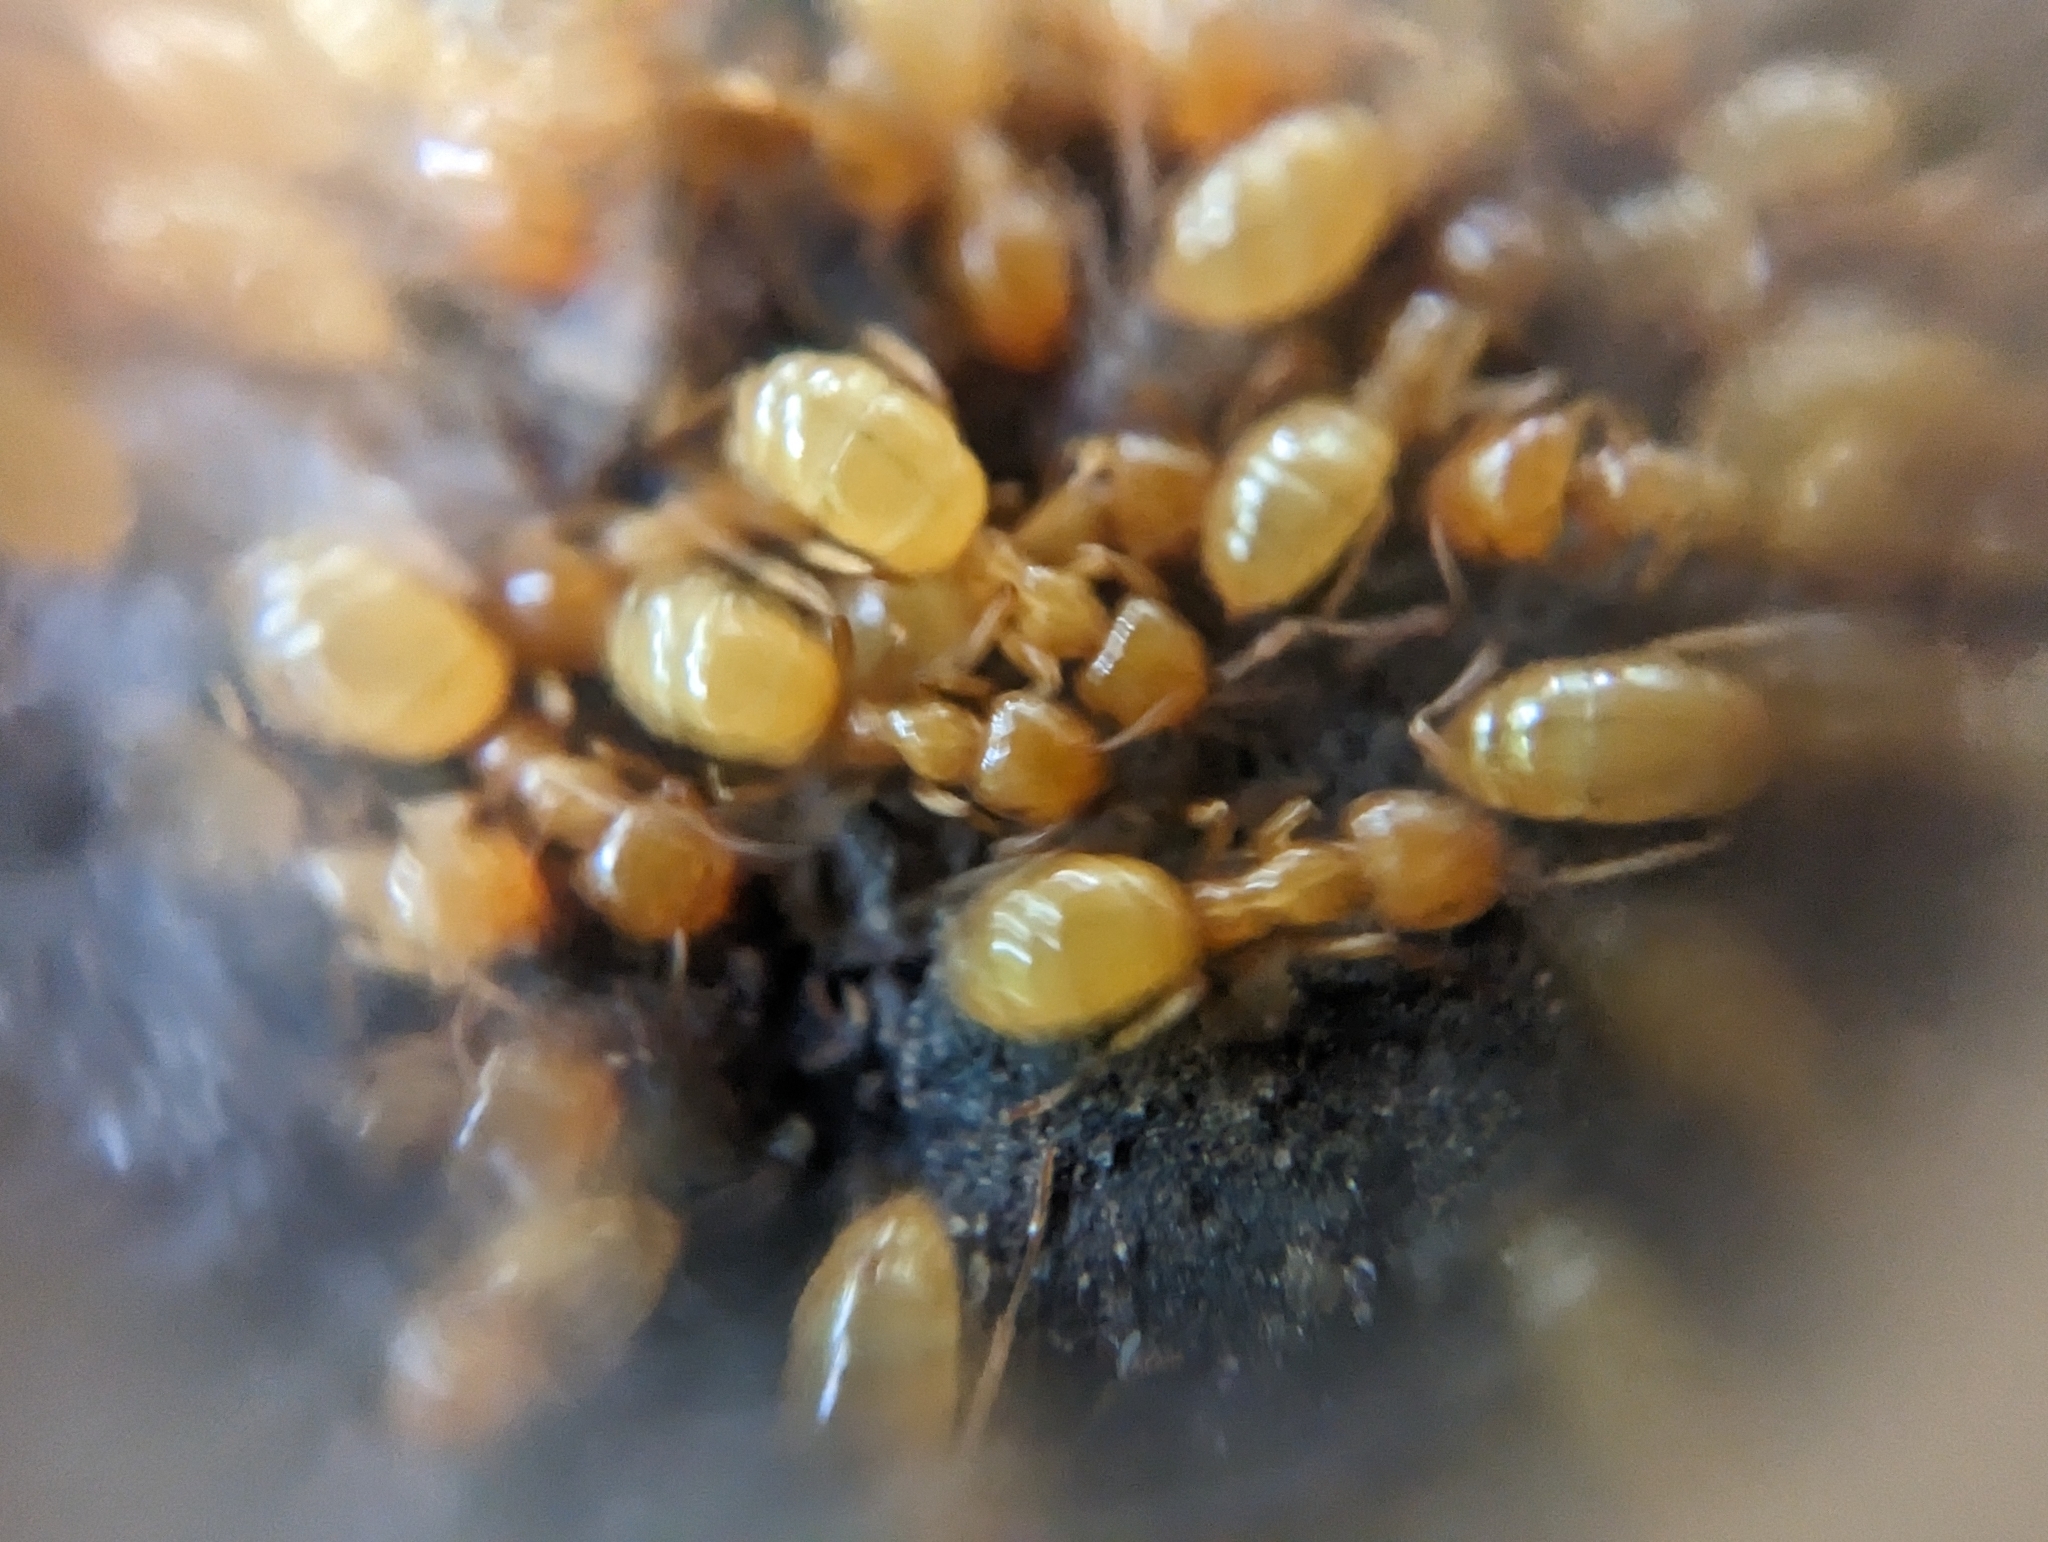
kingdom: Animalia
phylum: Arthropoda
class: Insecta
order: Hymenoptera
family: Formicidae
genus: Acanthomyops
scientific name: Acanthomyops
